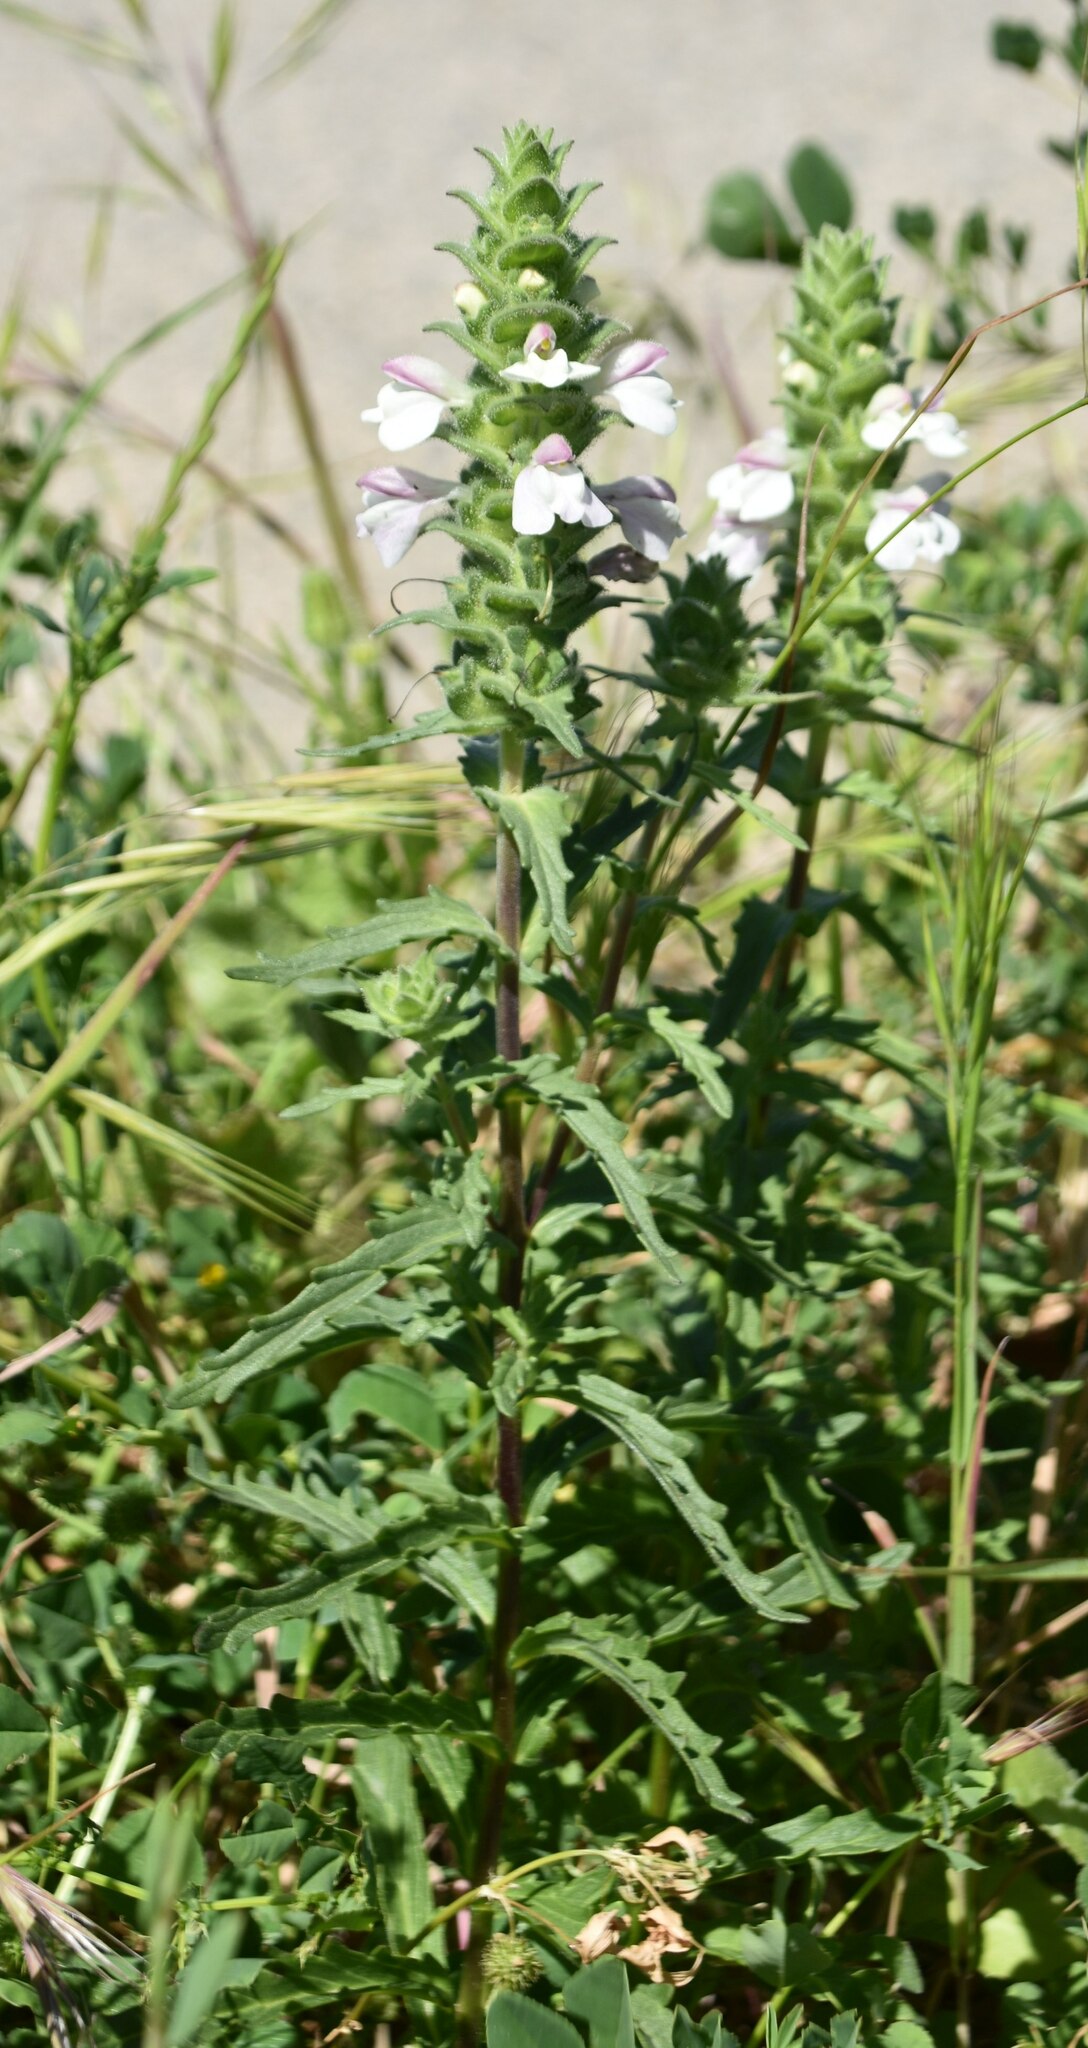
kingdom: Plantae
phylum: Tracheophyta
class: Magnoliopsida
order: Lamiales
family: Orobanchaceae
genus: Bellardia
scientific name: Bellardia trixago
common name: Mediterranean lineseed
